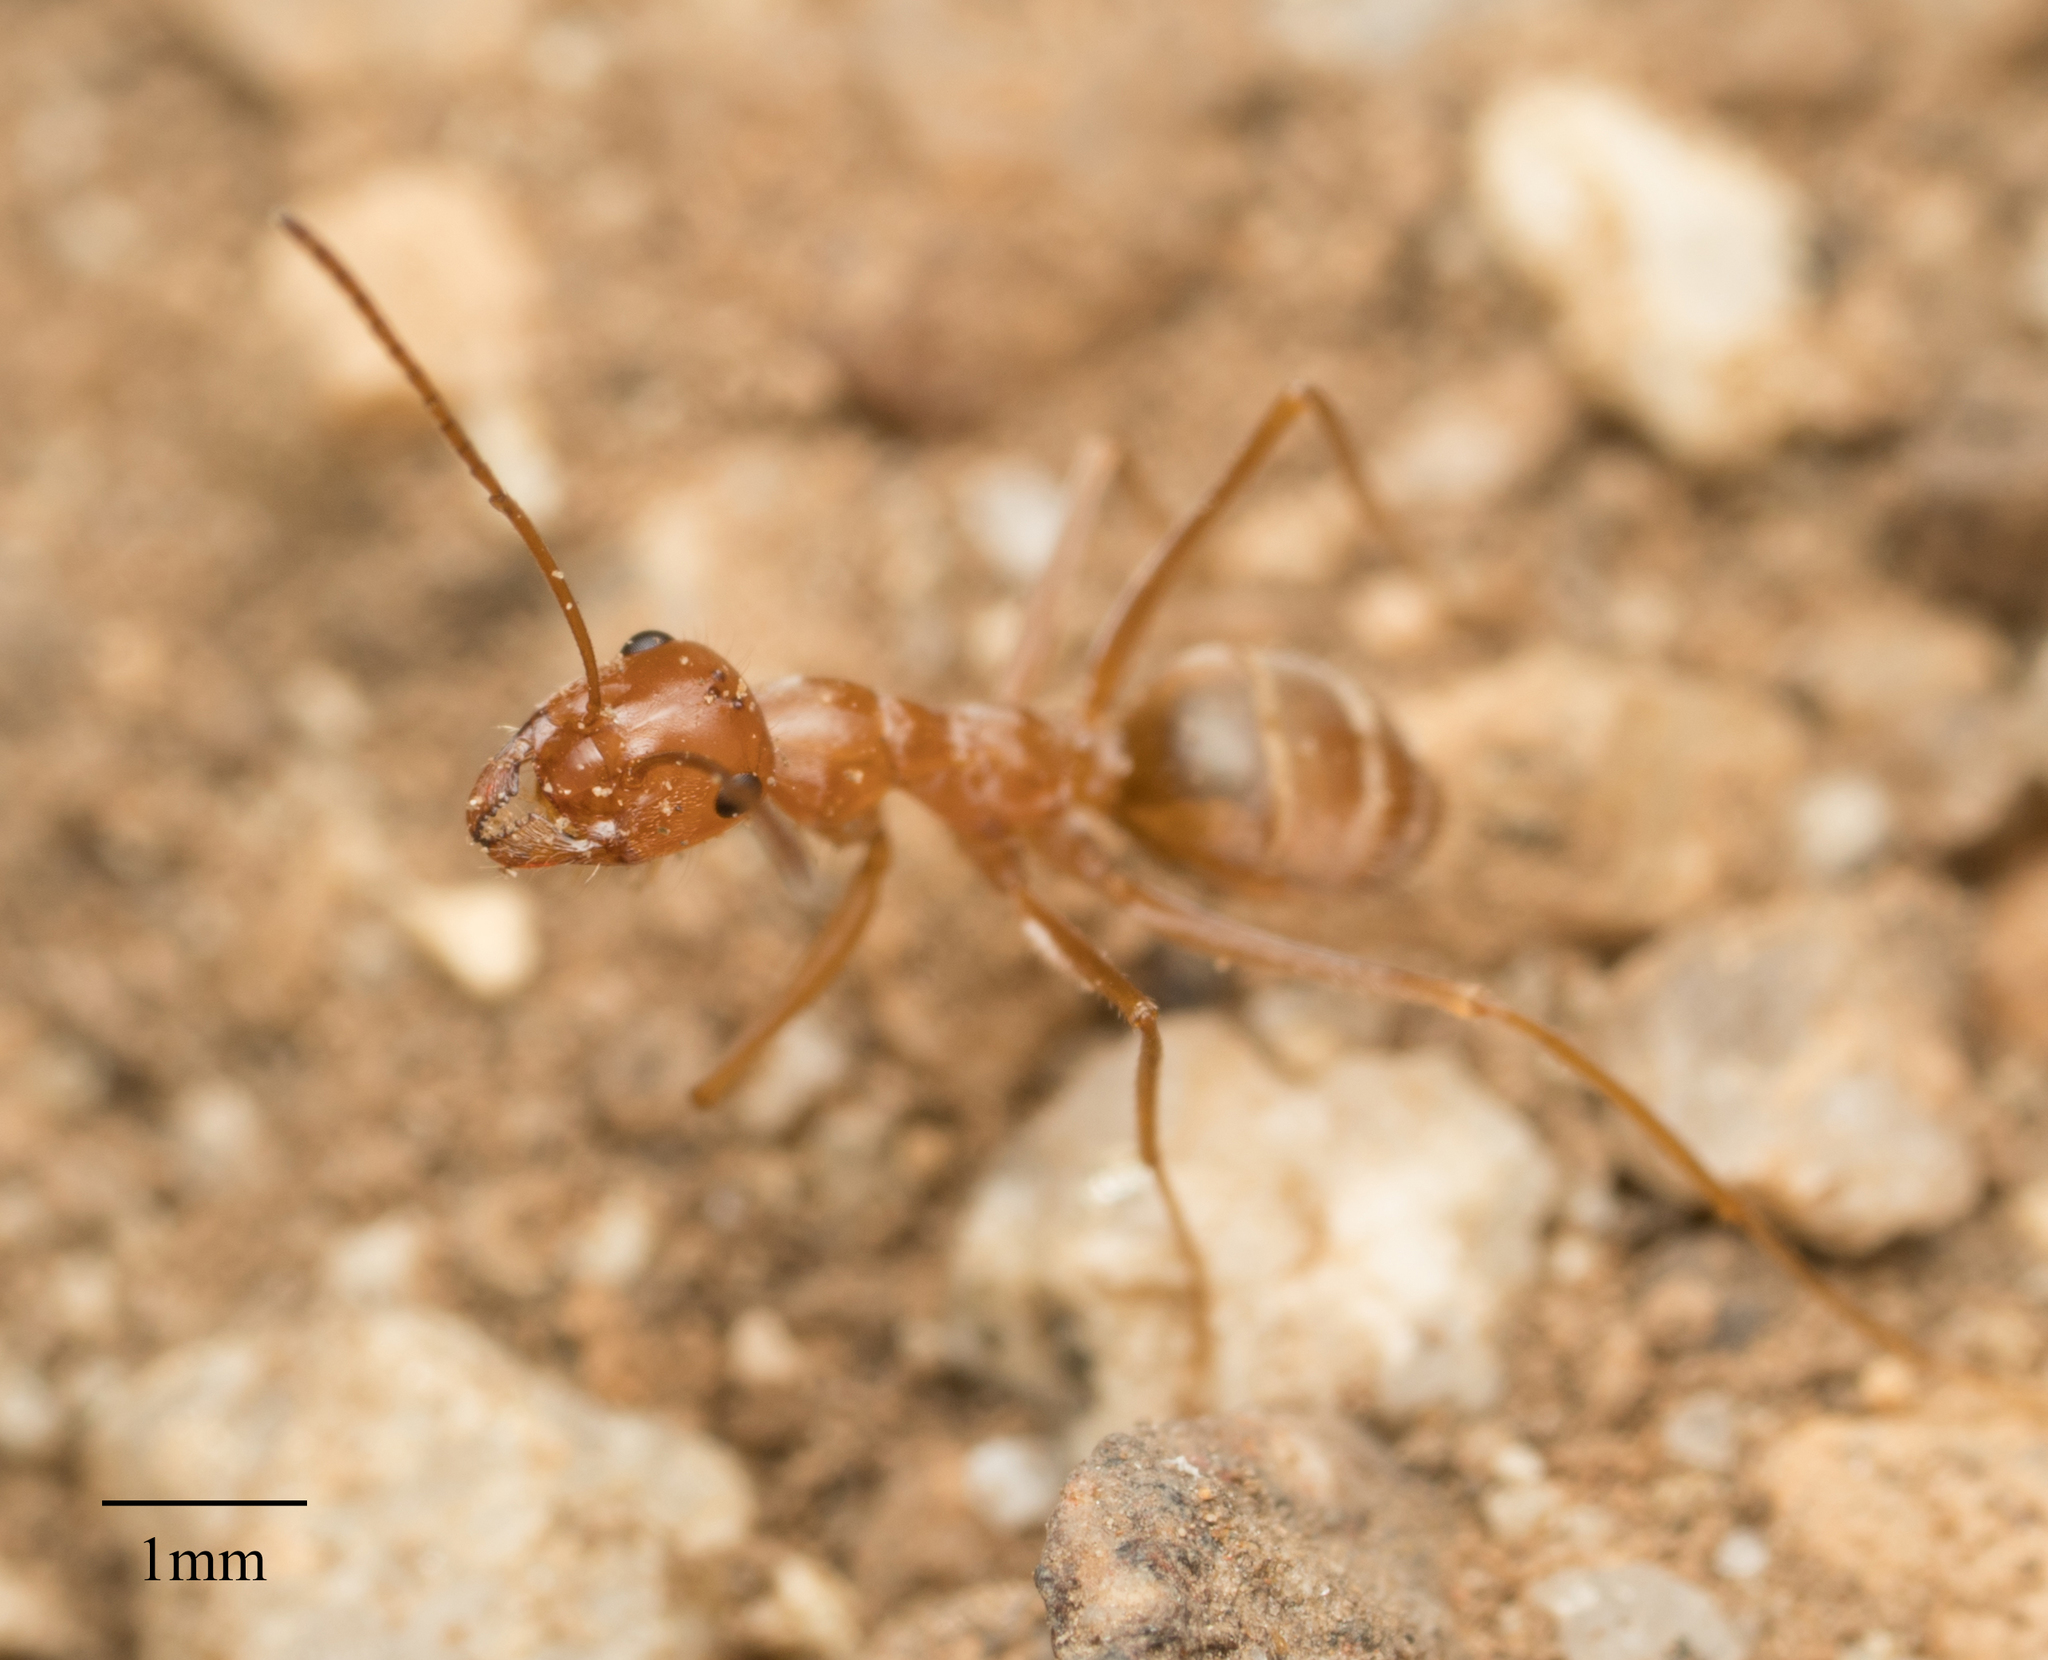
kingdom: Animalia
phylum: Arthropoda
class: Insecta
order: Hymenoptera
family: Formicidae
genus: Myrmecocystus
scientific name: Myrmecocystus wheeleri
